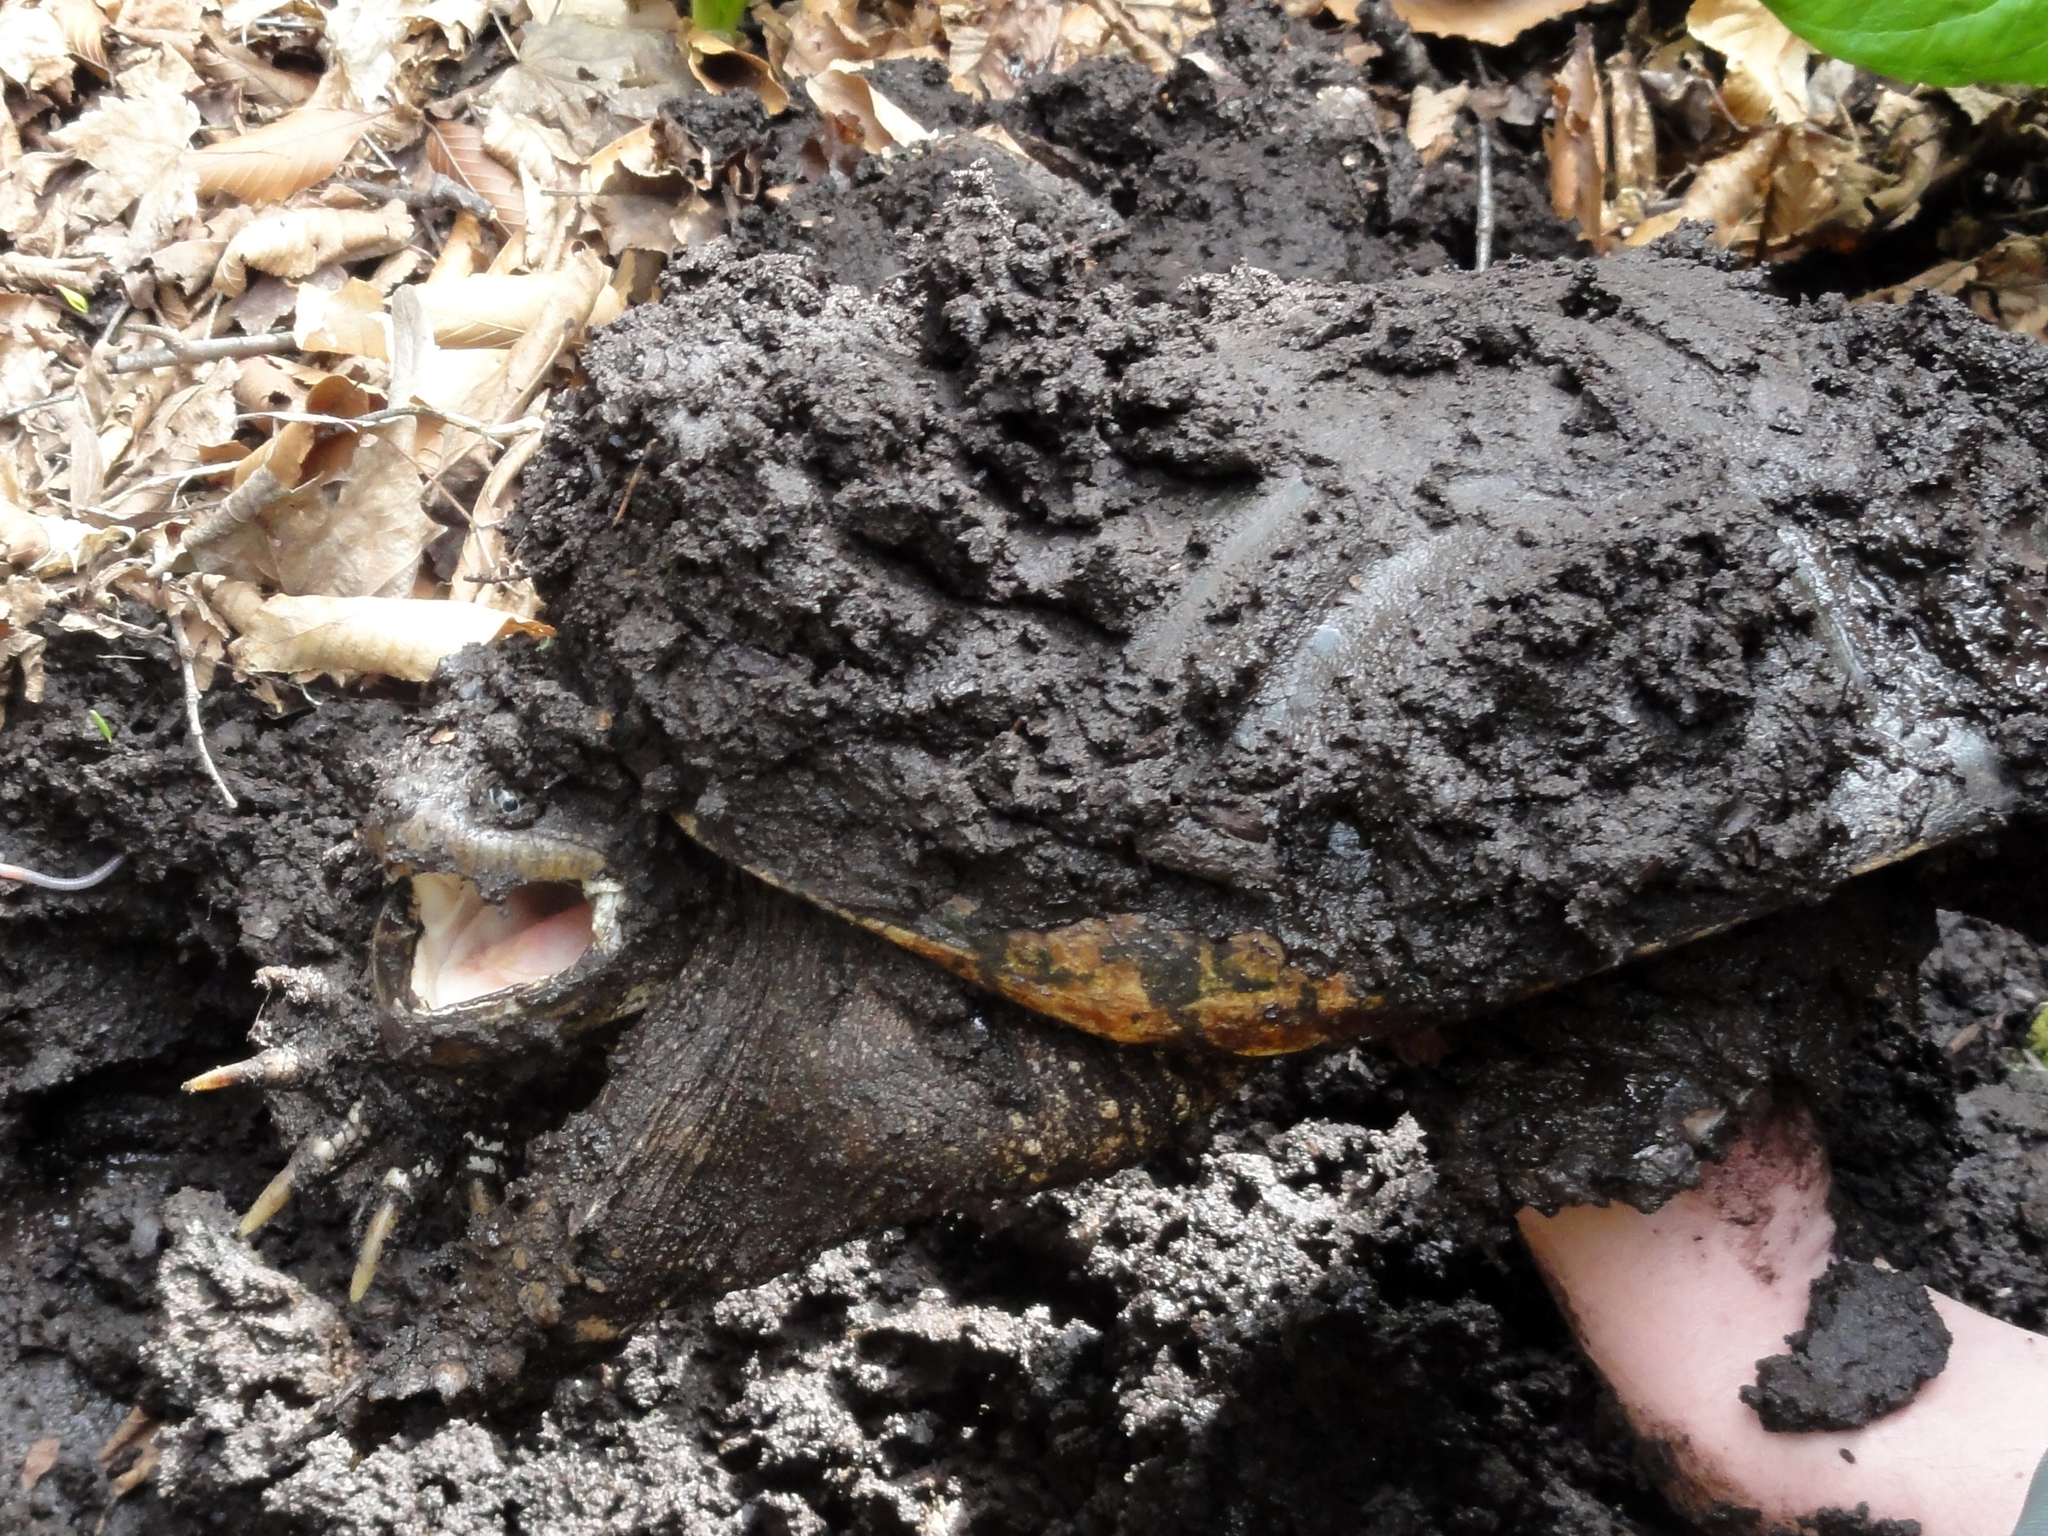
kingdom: Animalia
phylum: Chordata
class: Testudines
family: Chelydridae
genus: Chelydra
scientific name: Chelydra serpentina
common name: Common snapping turtle
